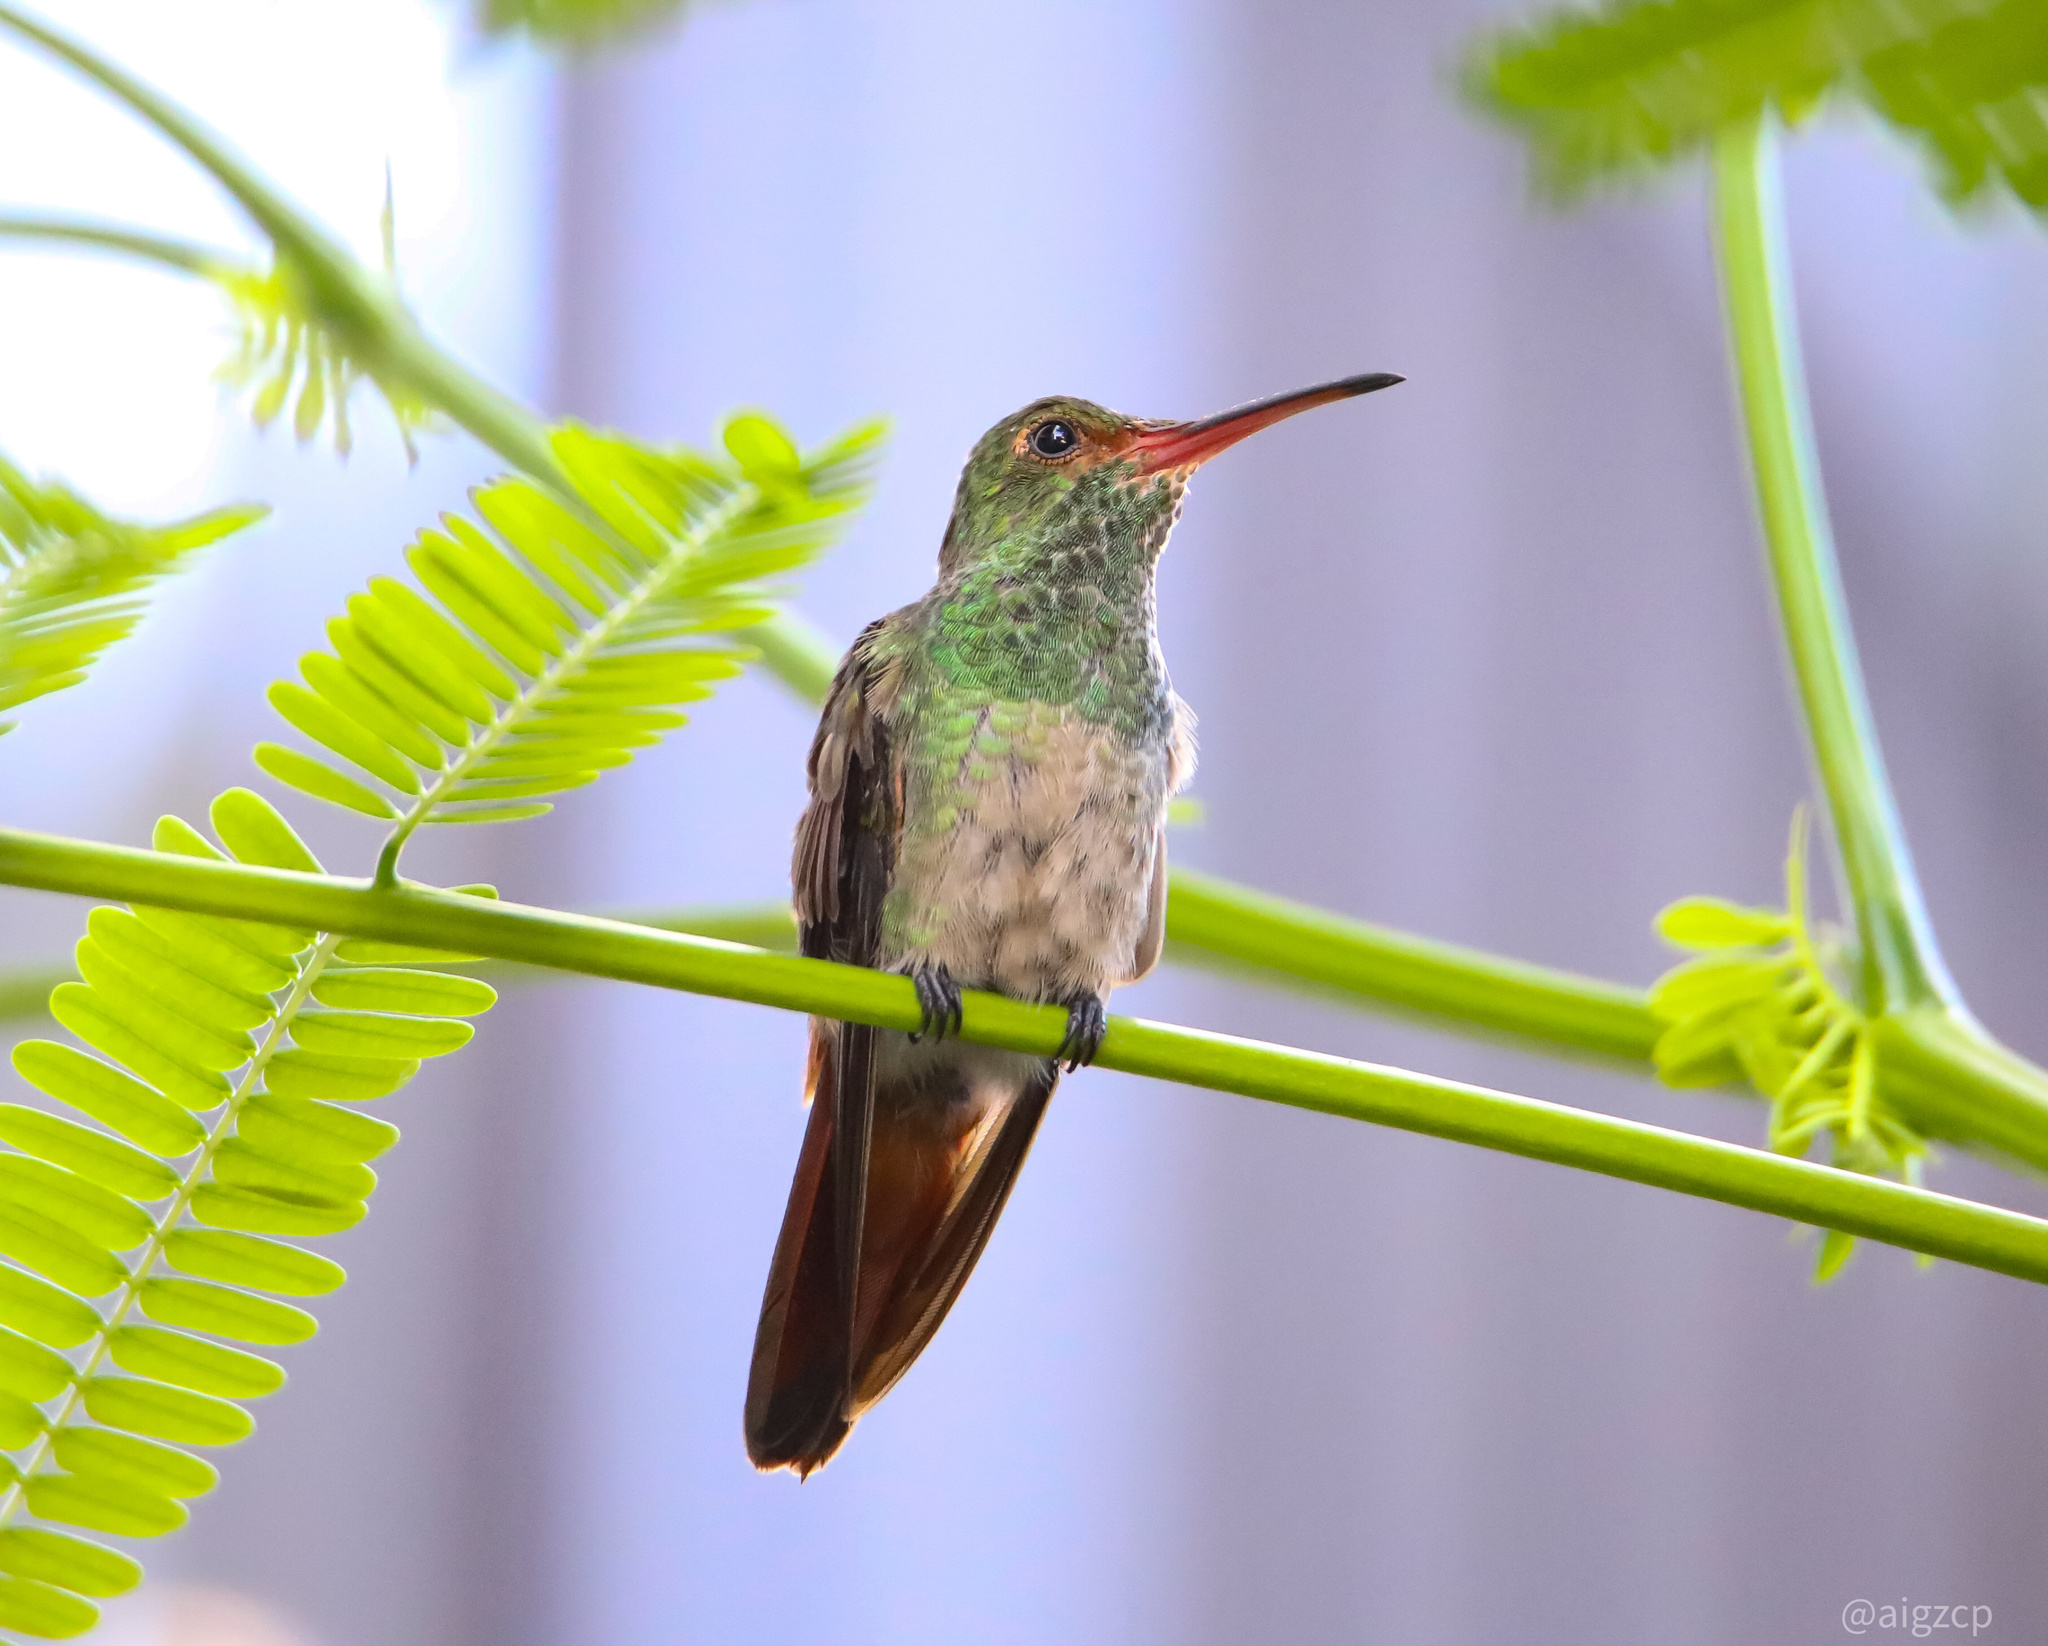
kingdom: Animalia
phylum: Chordata
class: Aves
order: Apodiformes
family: Trochilidae
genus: Amazilia
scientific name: Amazilia tzacatl
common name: Rufous-tailed hummingbird
